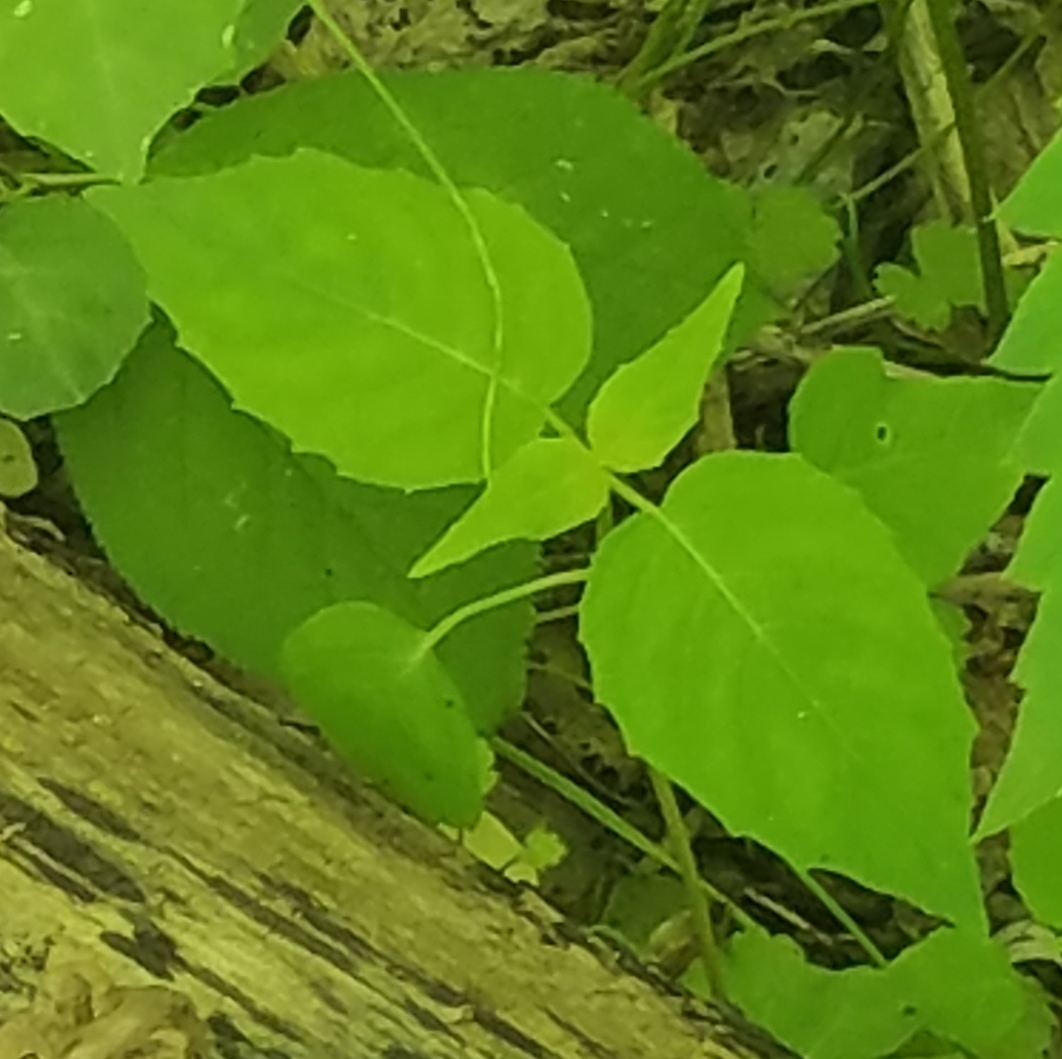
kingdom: Plantae
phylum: Tracheophyta
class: Magnoliopsida
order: Myrtales
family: Onagraceae
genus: Circaea
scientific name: Circaea canadensis
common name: Broad-leaved enchanter's nightshade
